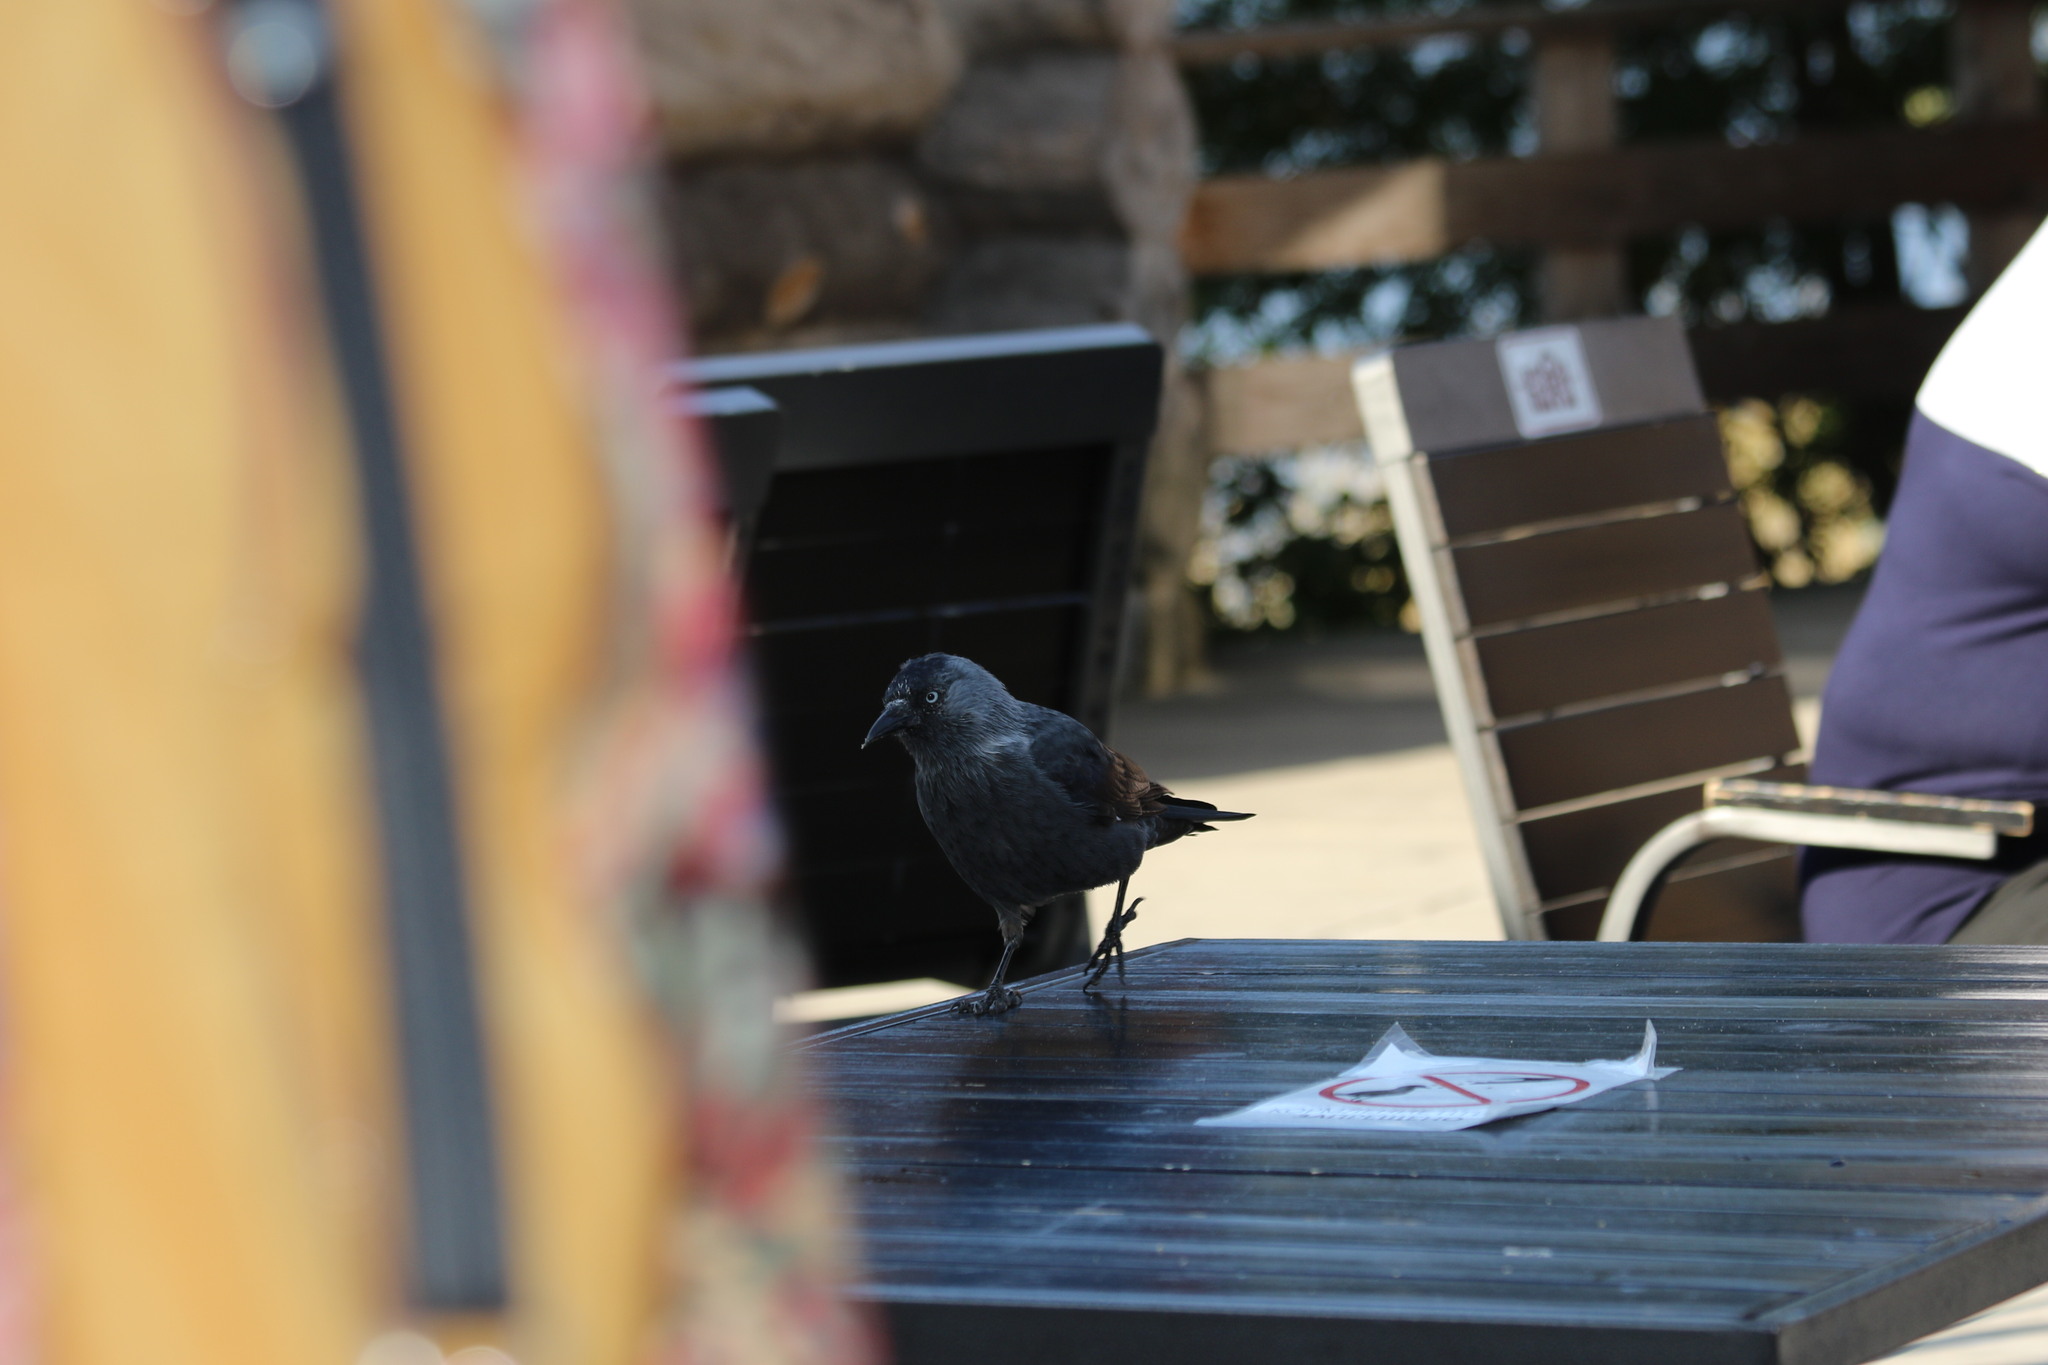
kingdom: Animalia
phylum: Chordata
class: Aves
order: Passeriformes
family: Corvidae
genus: Coloeus
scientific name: Coloeus monedula
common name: Western jackdaw
